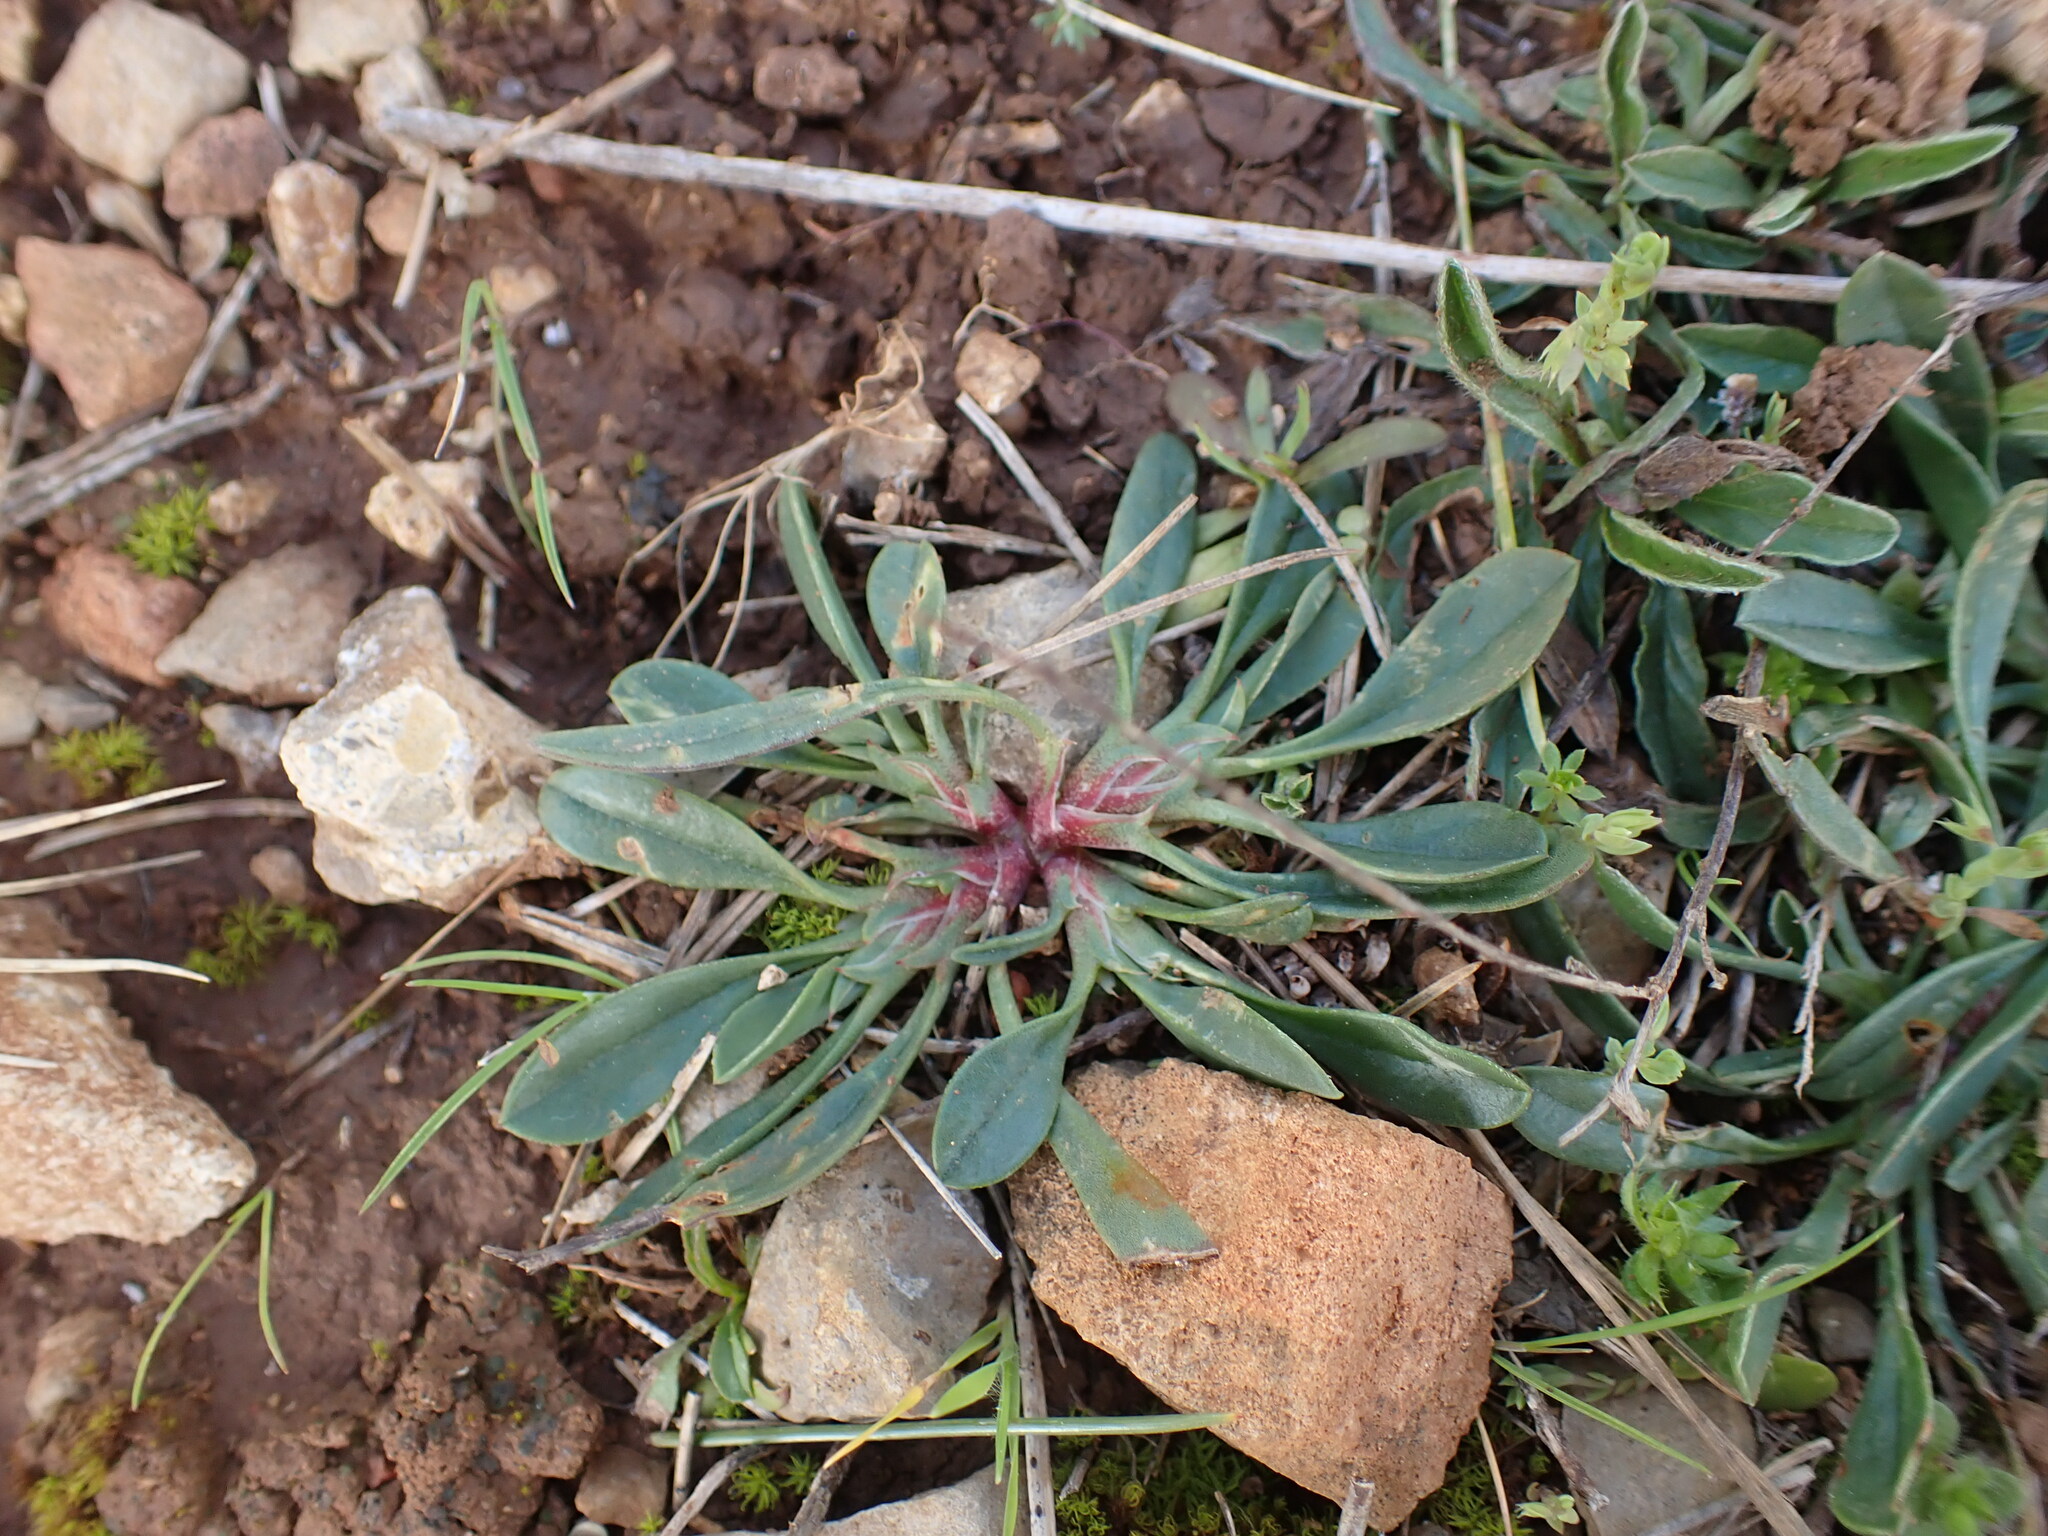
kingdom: Plantae
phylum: Tracheophyta
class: Magnoliopsida
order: Fabales
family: Fabaceae
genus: Scorpiurus
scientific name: Scorpiurus muricatus
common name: Caterpillar-plant
